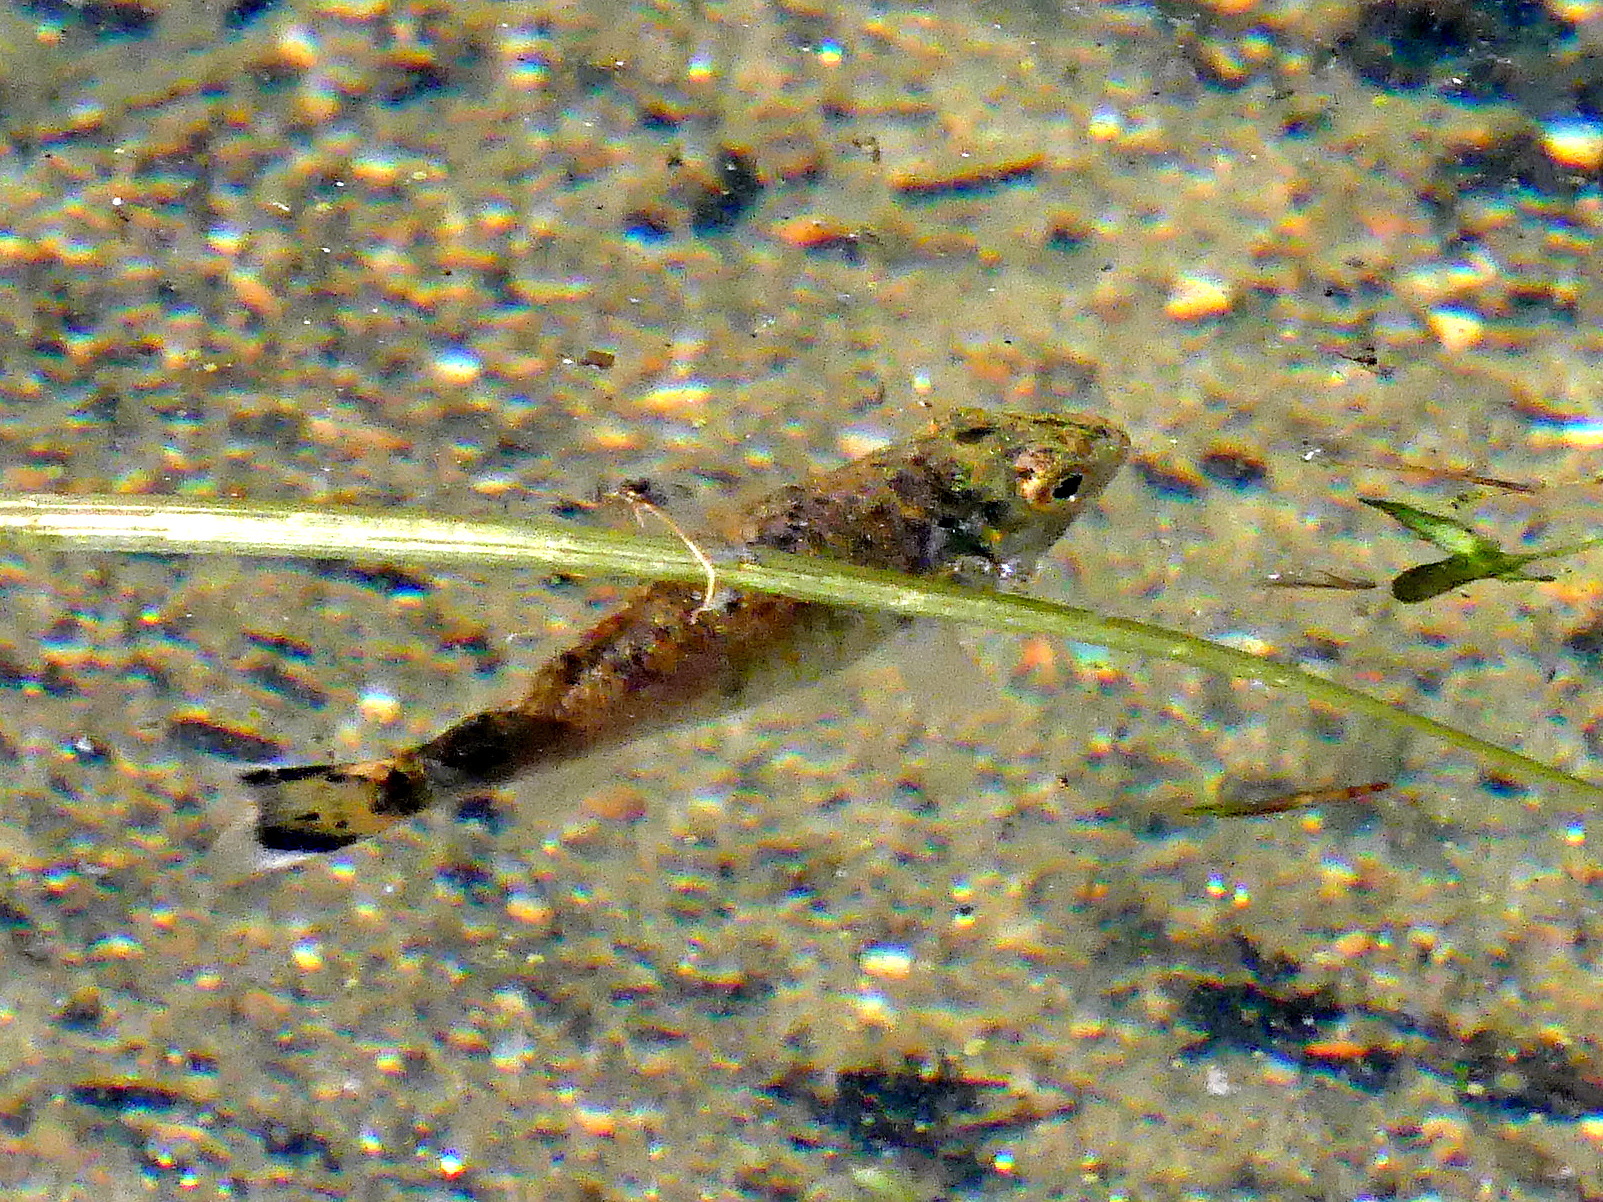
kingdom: Animalia
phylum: Chordata
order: Perciformes
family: Centrarchidae
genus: Micropterus
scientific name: Micropterus dolomieu
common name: Smallmouth bass
